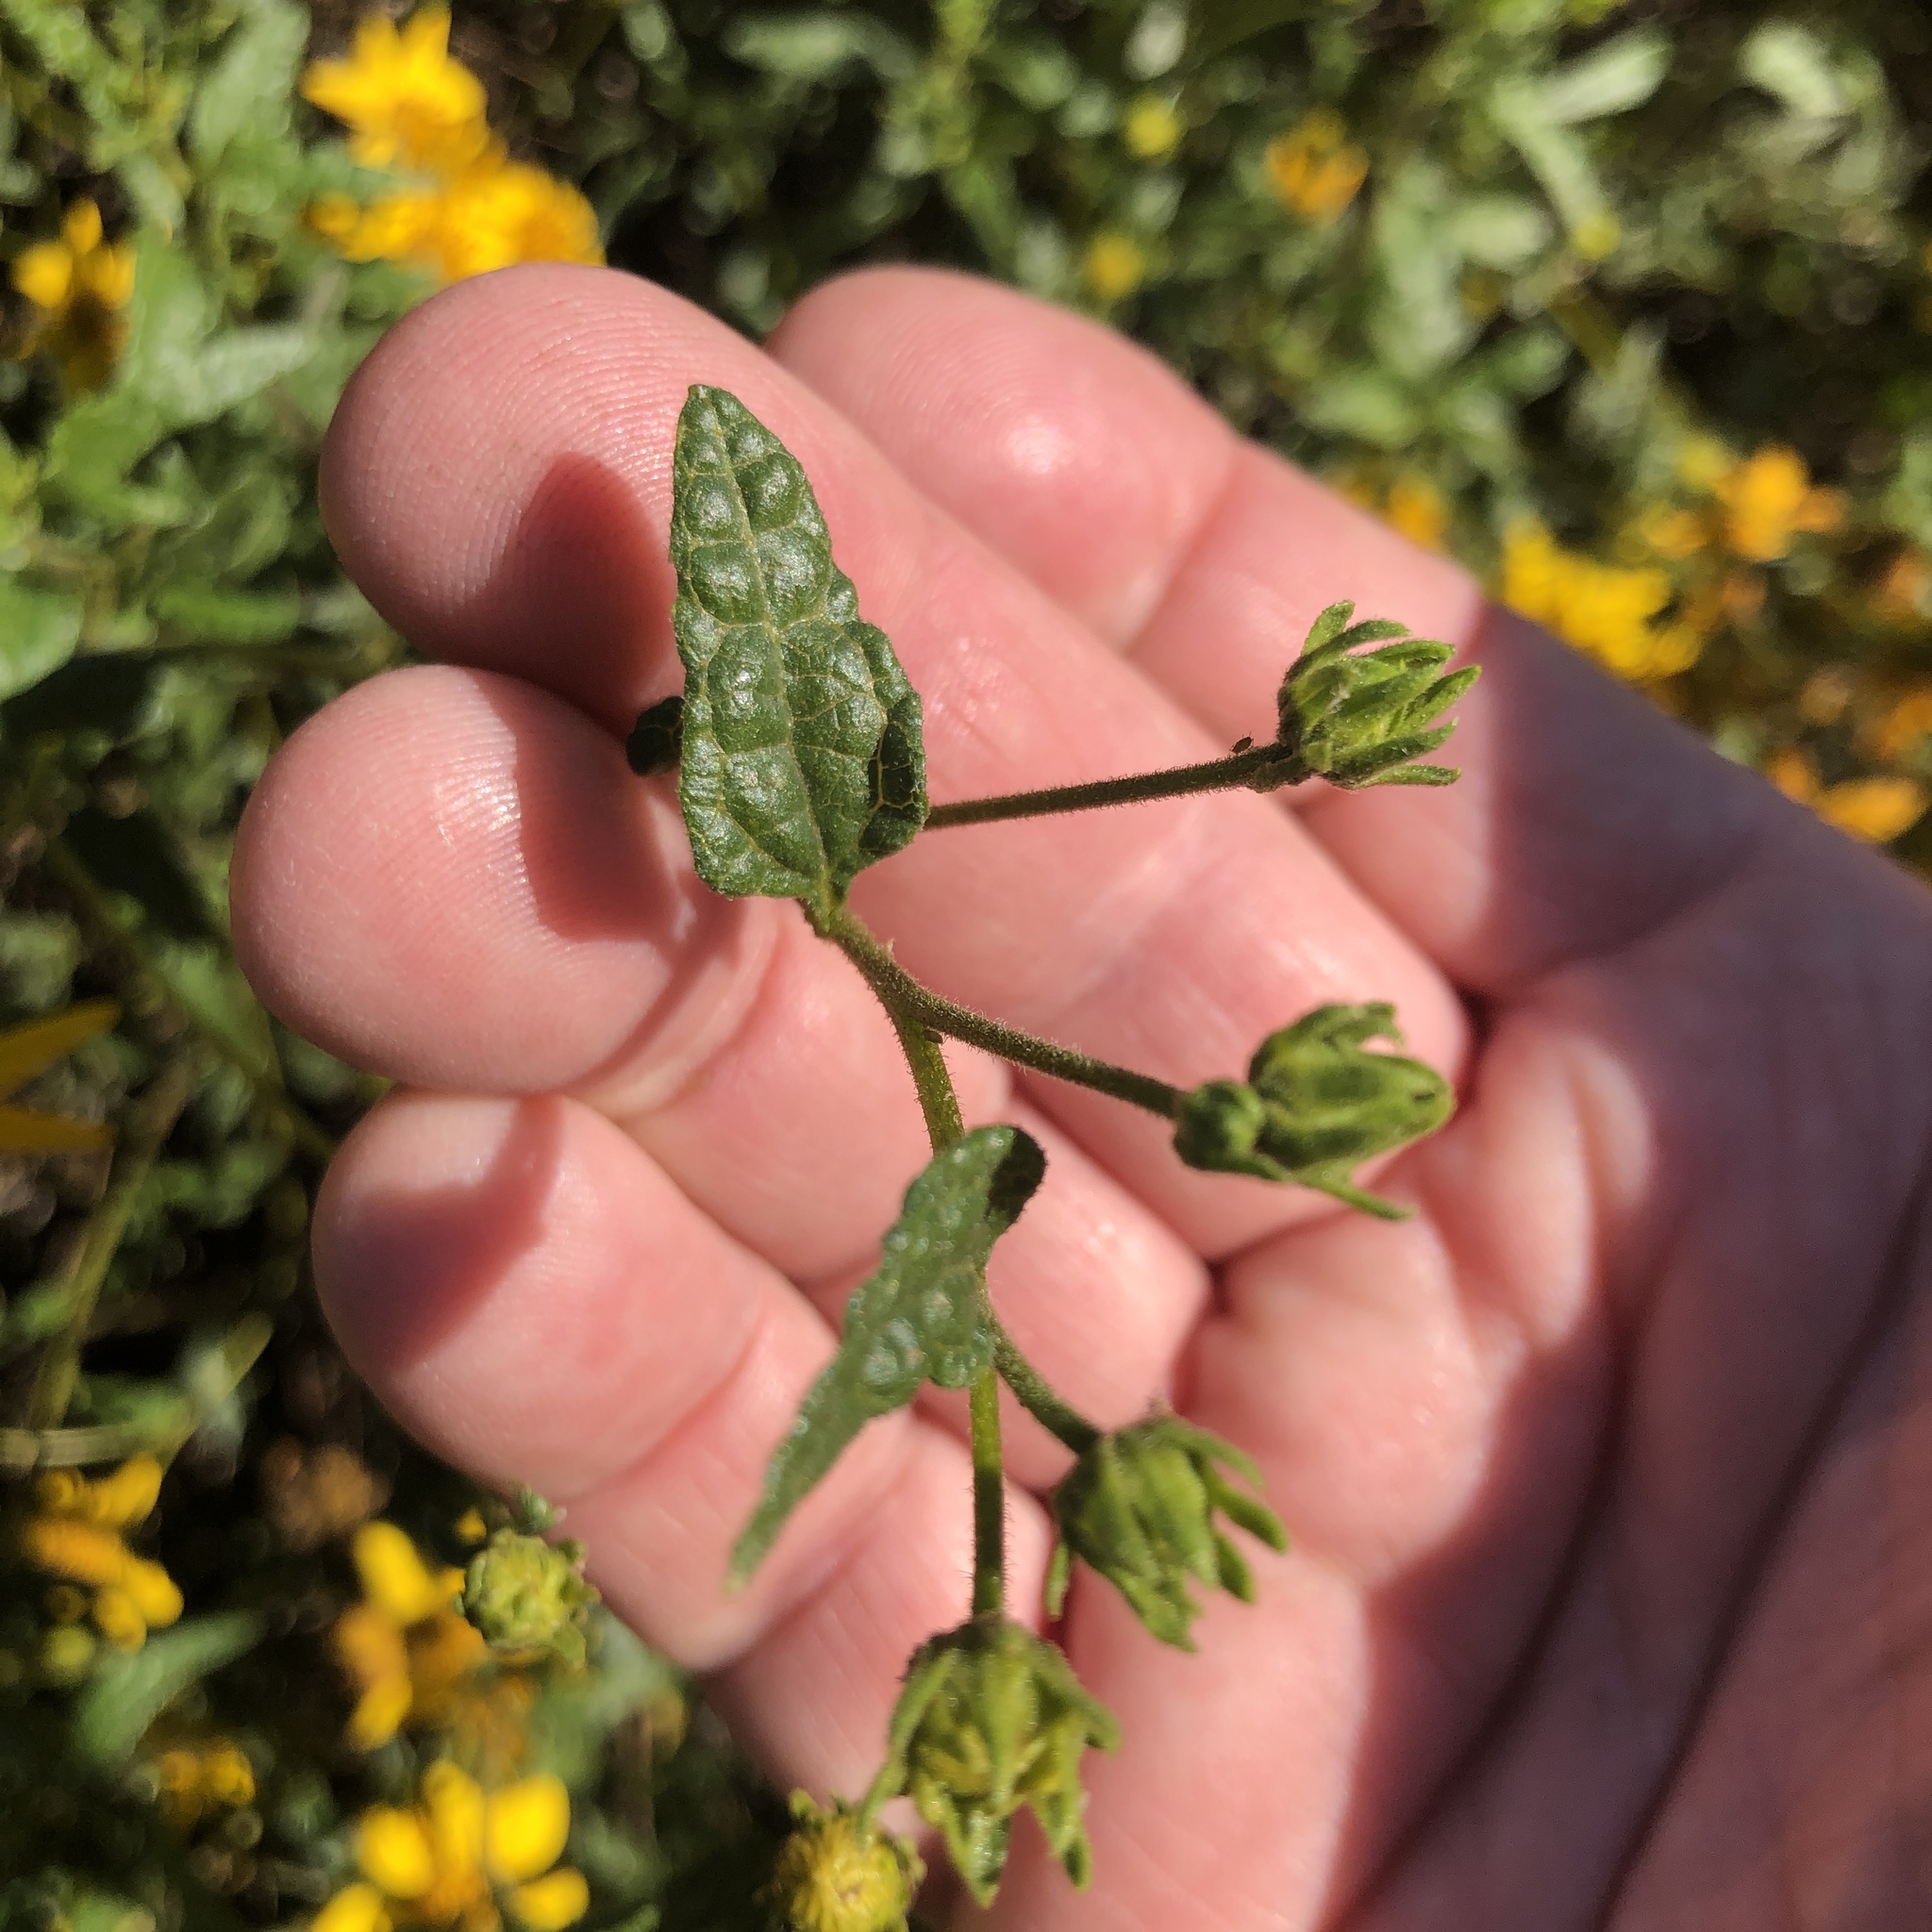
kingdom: Plantae
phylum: Tracheophyta
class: Magnoliopsida
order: Asterales
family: Asteraceae
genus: Bahiopsis
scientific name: Bahiopsis laciniata
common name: San diego county viguiera
